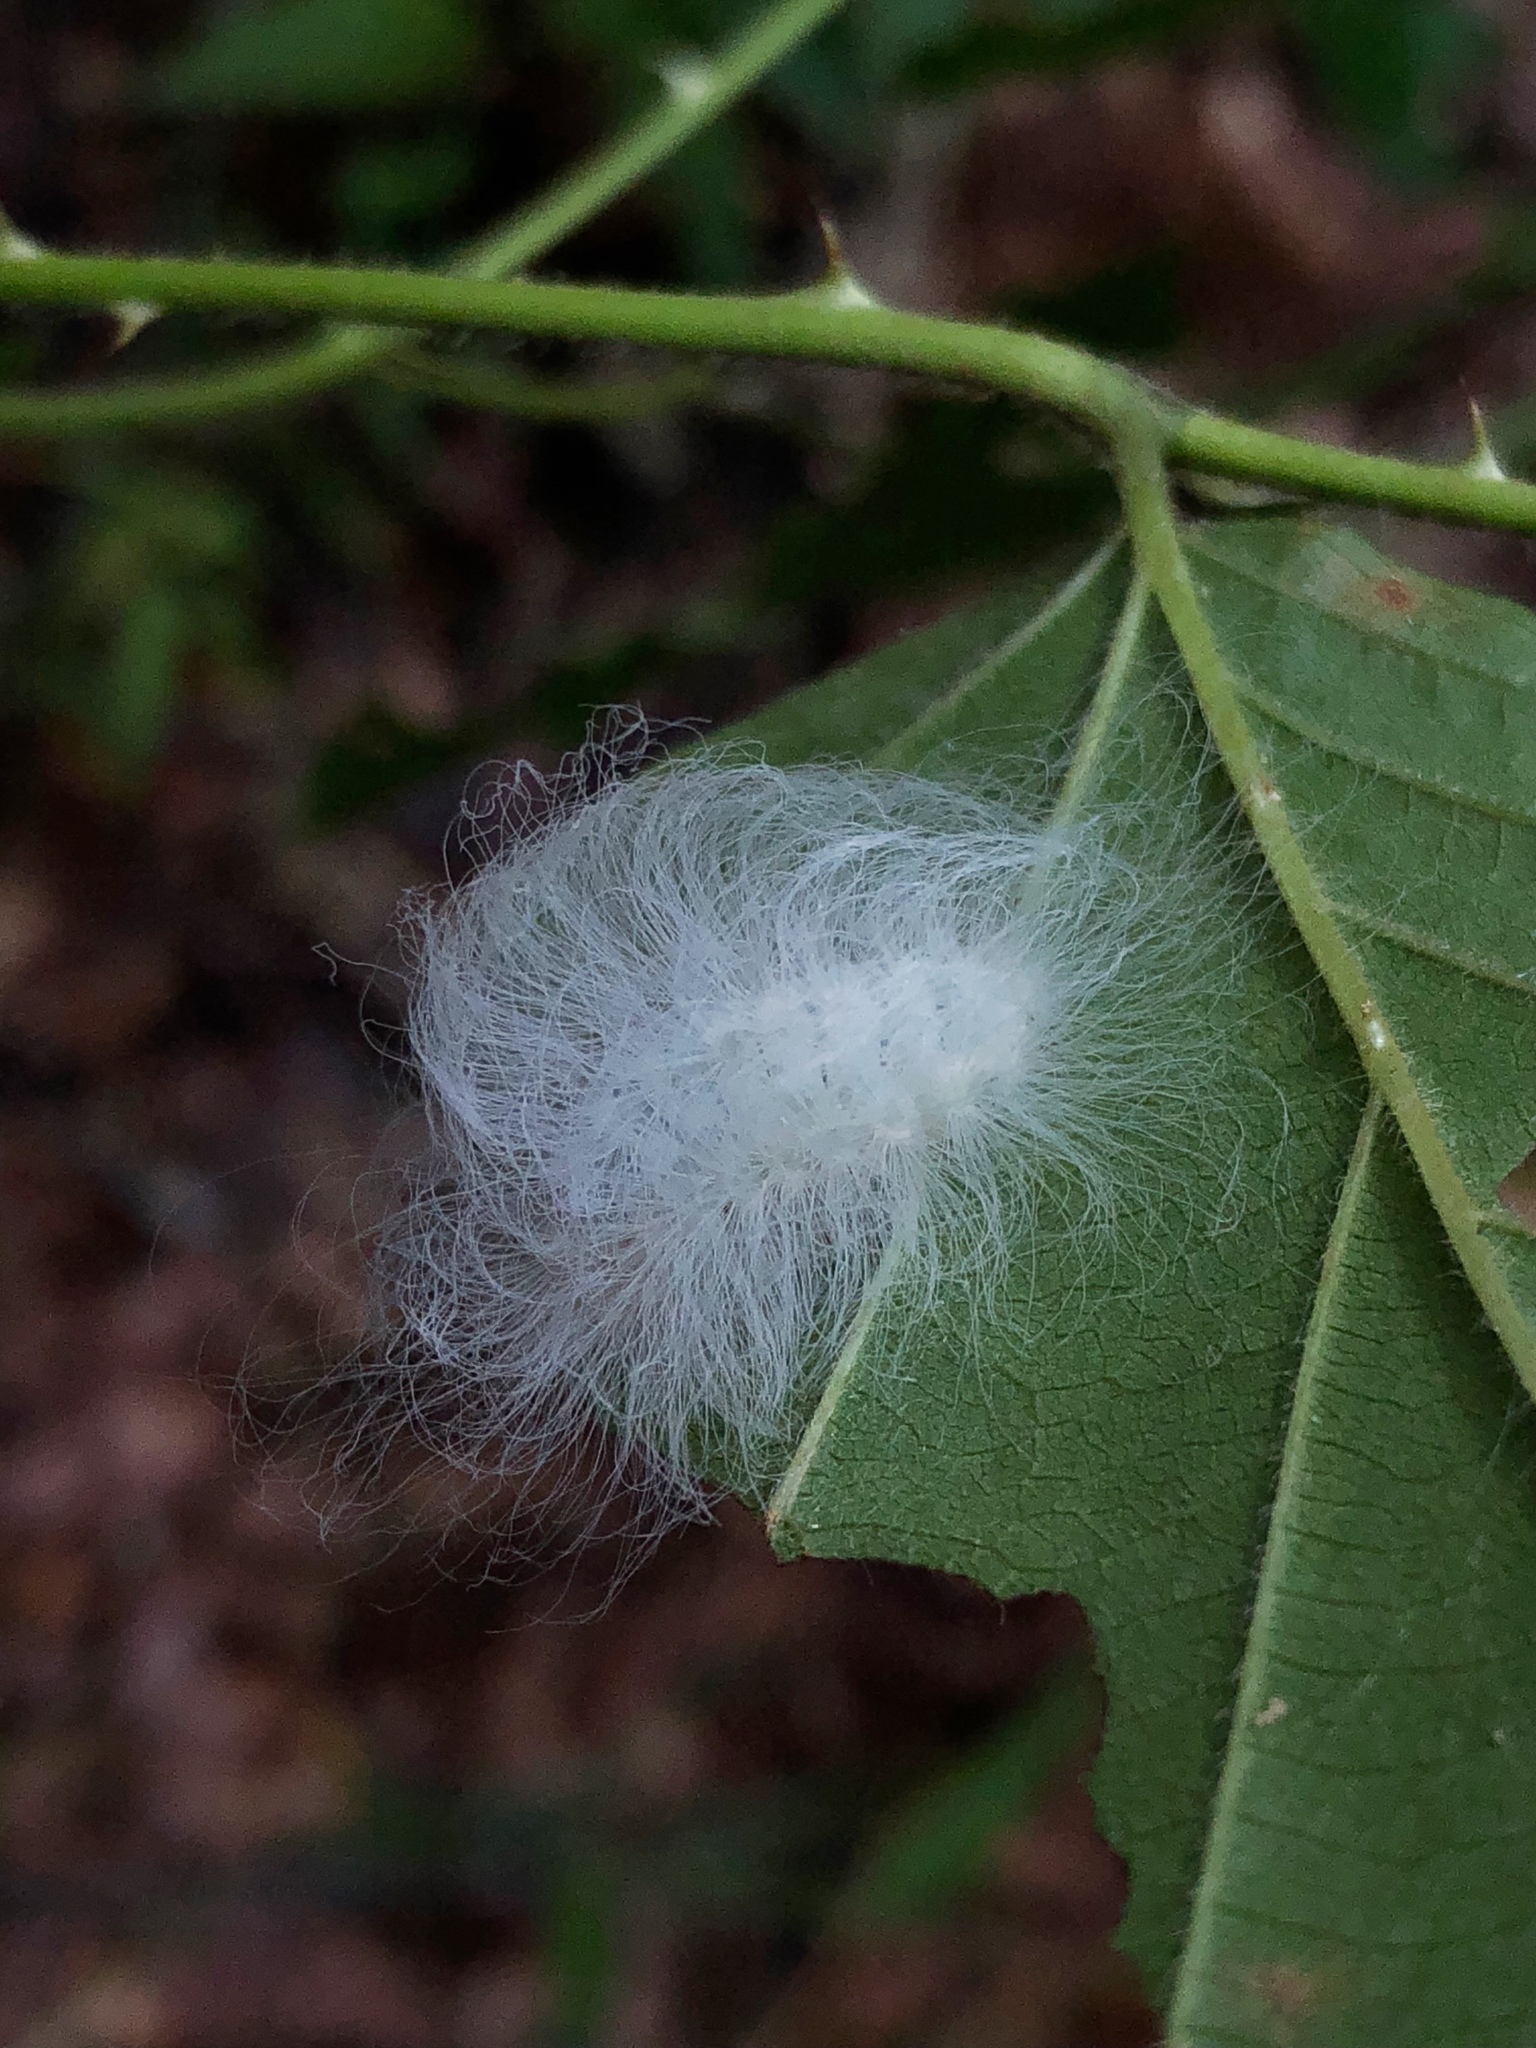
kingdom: Animalia
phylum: Arthropoda
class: Insecta
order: Lepidoptera
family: Megalopygidae
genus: Megalopyge
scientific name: Megalopyge crispata
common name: Black-waved flannel moth
